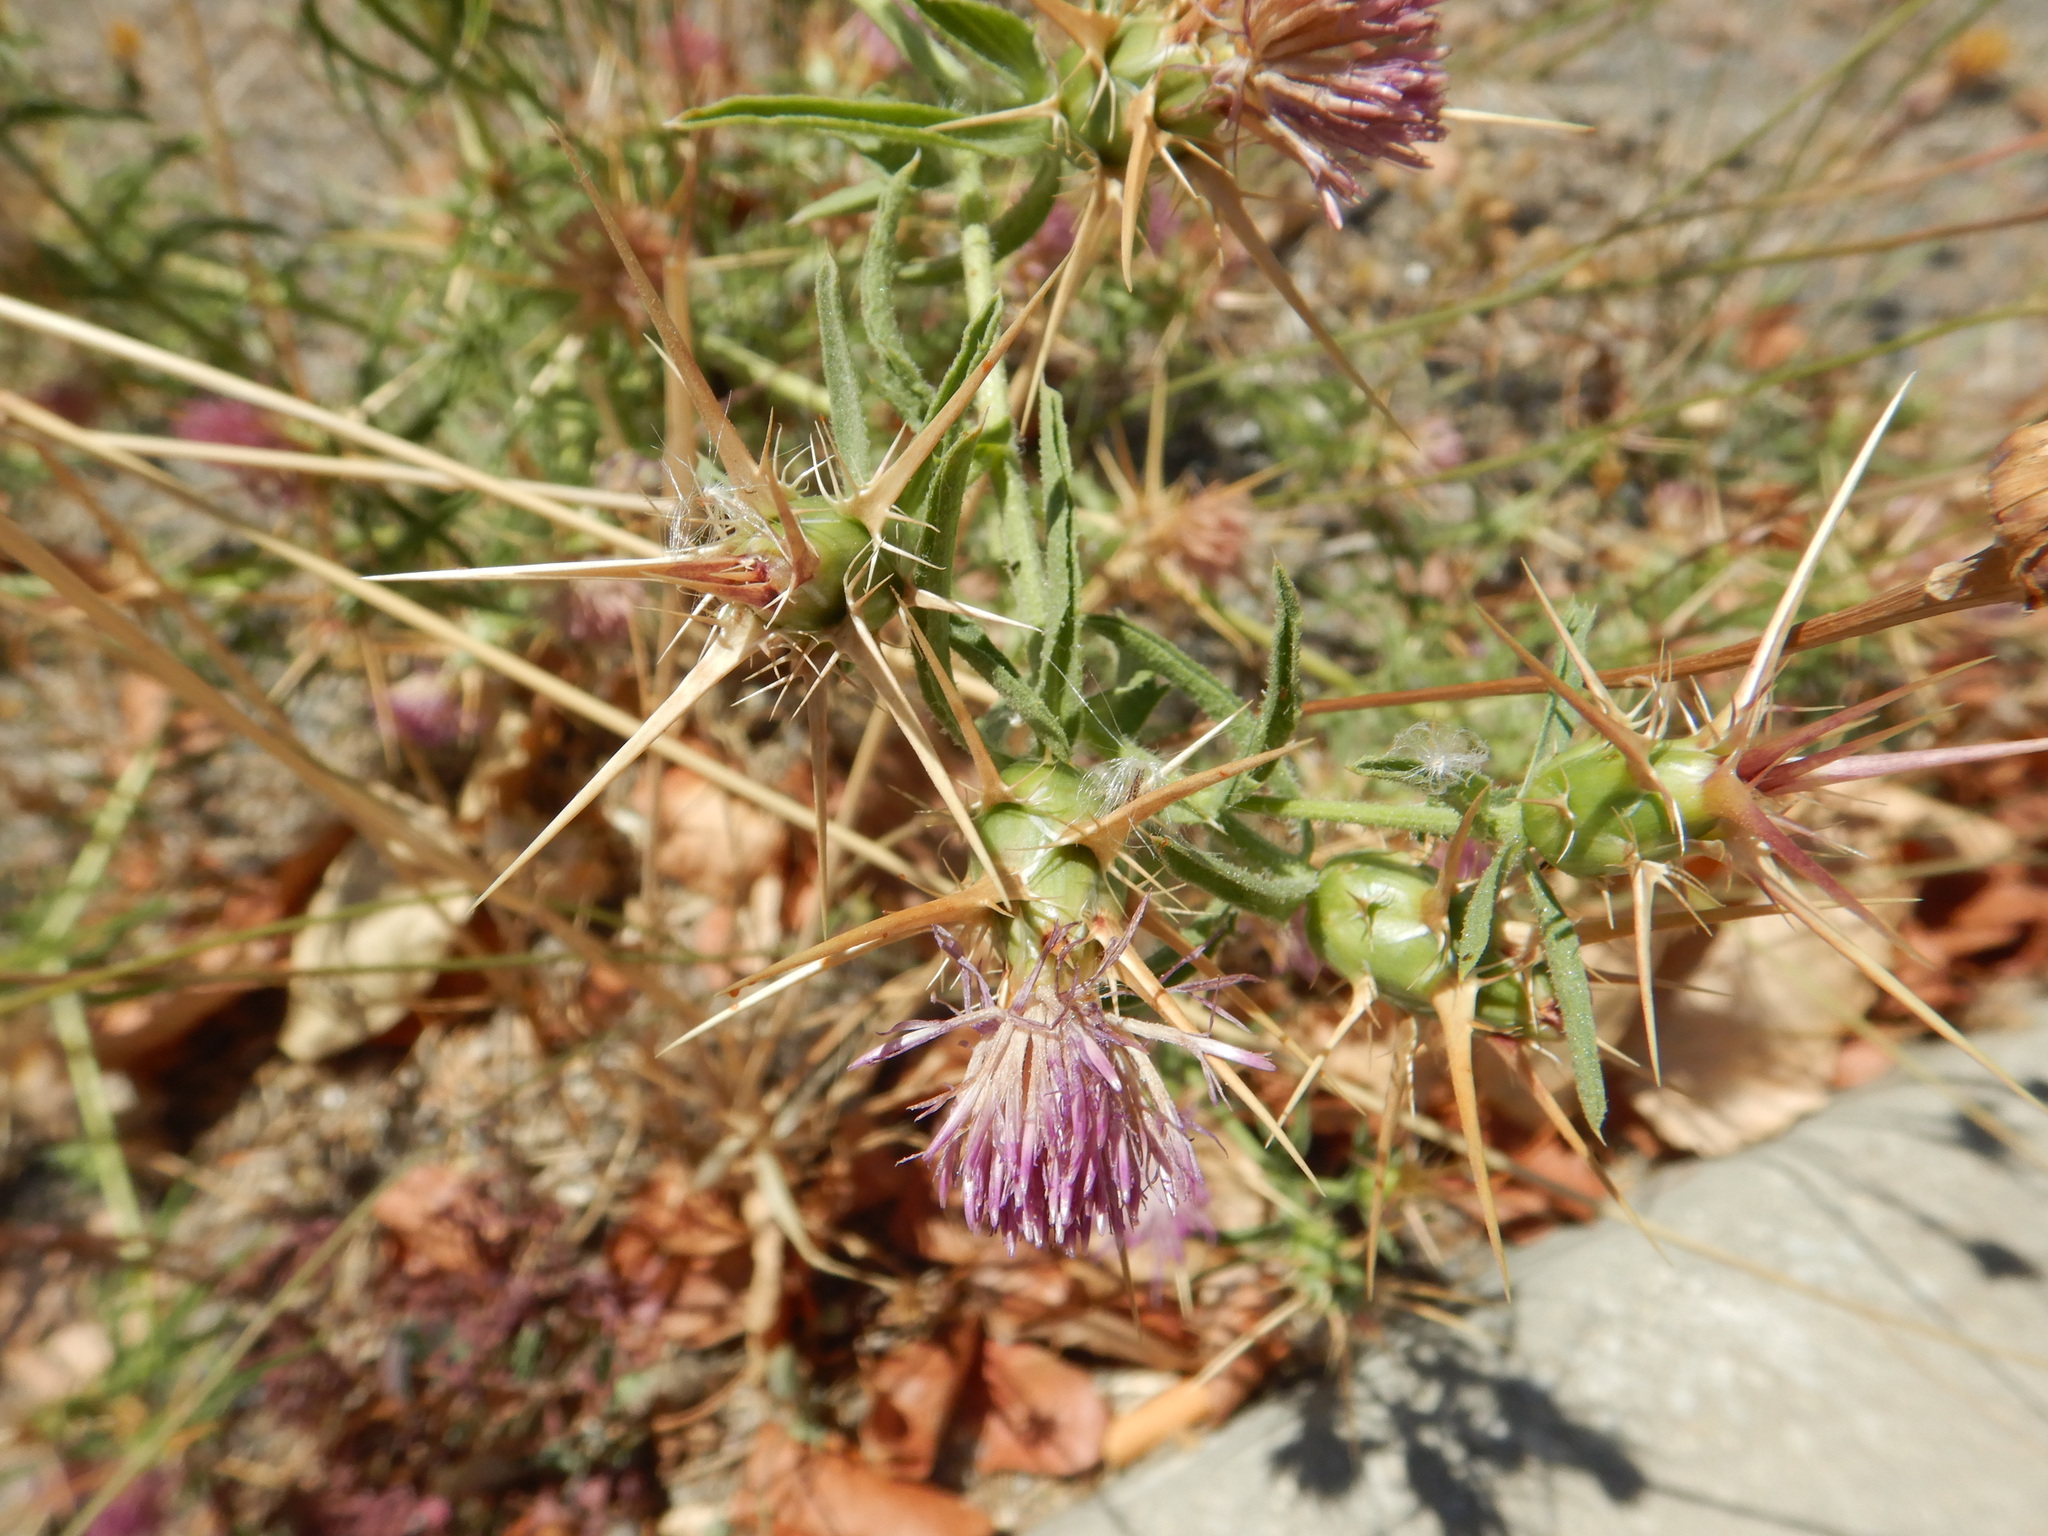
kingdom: Plantae
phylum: Tracheophyta
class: Magnoliopsida
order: Asterales
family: Asteraceae
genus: Centaurea
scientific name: Centaurea calcitrapa
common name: Red star-thistle
